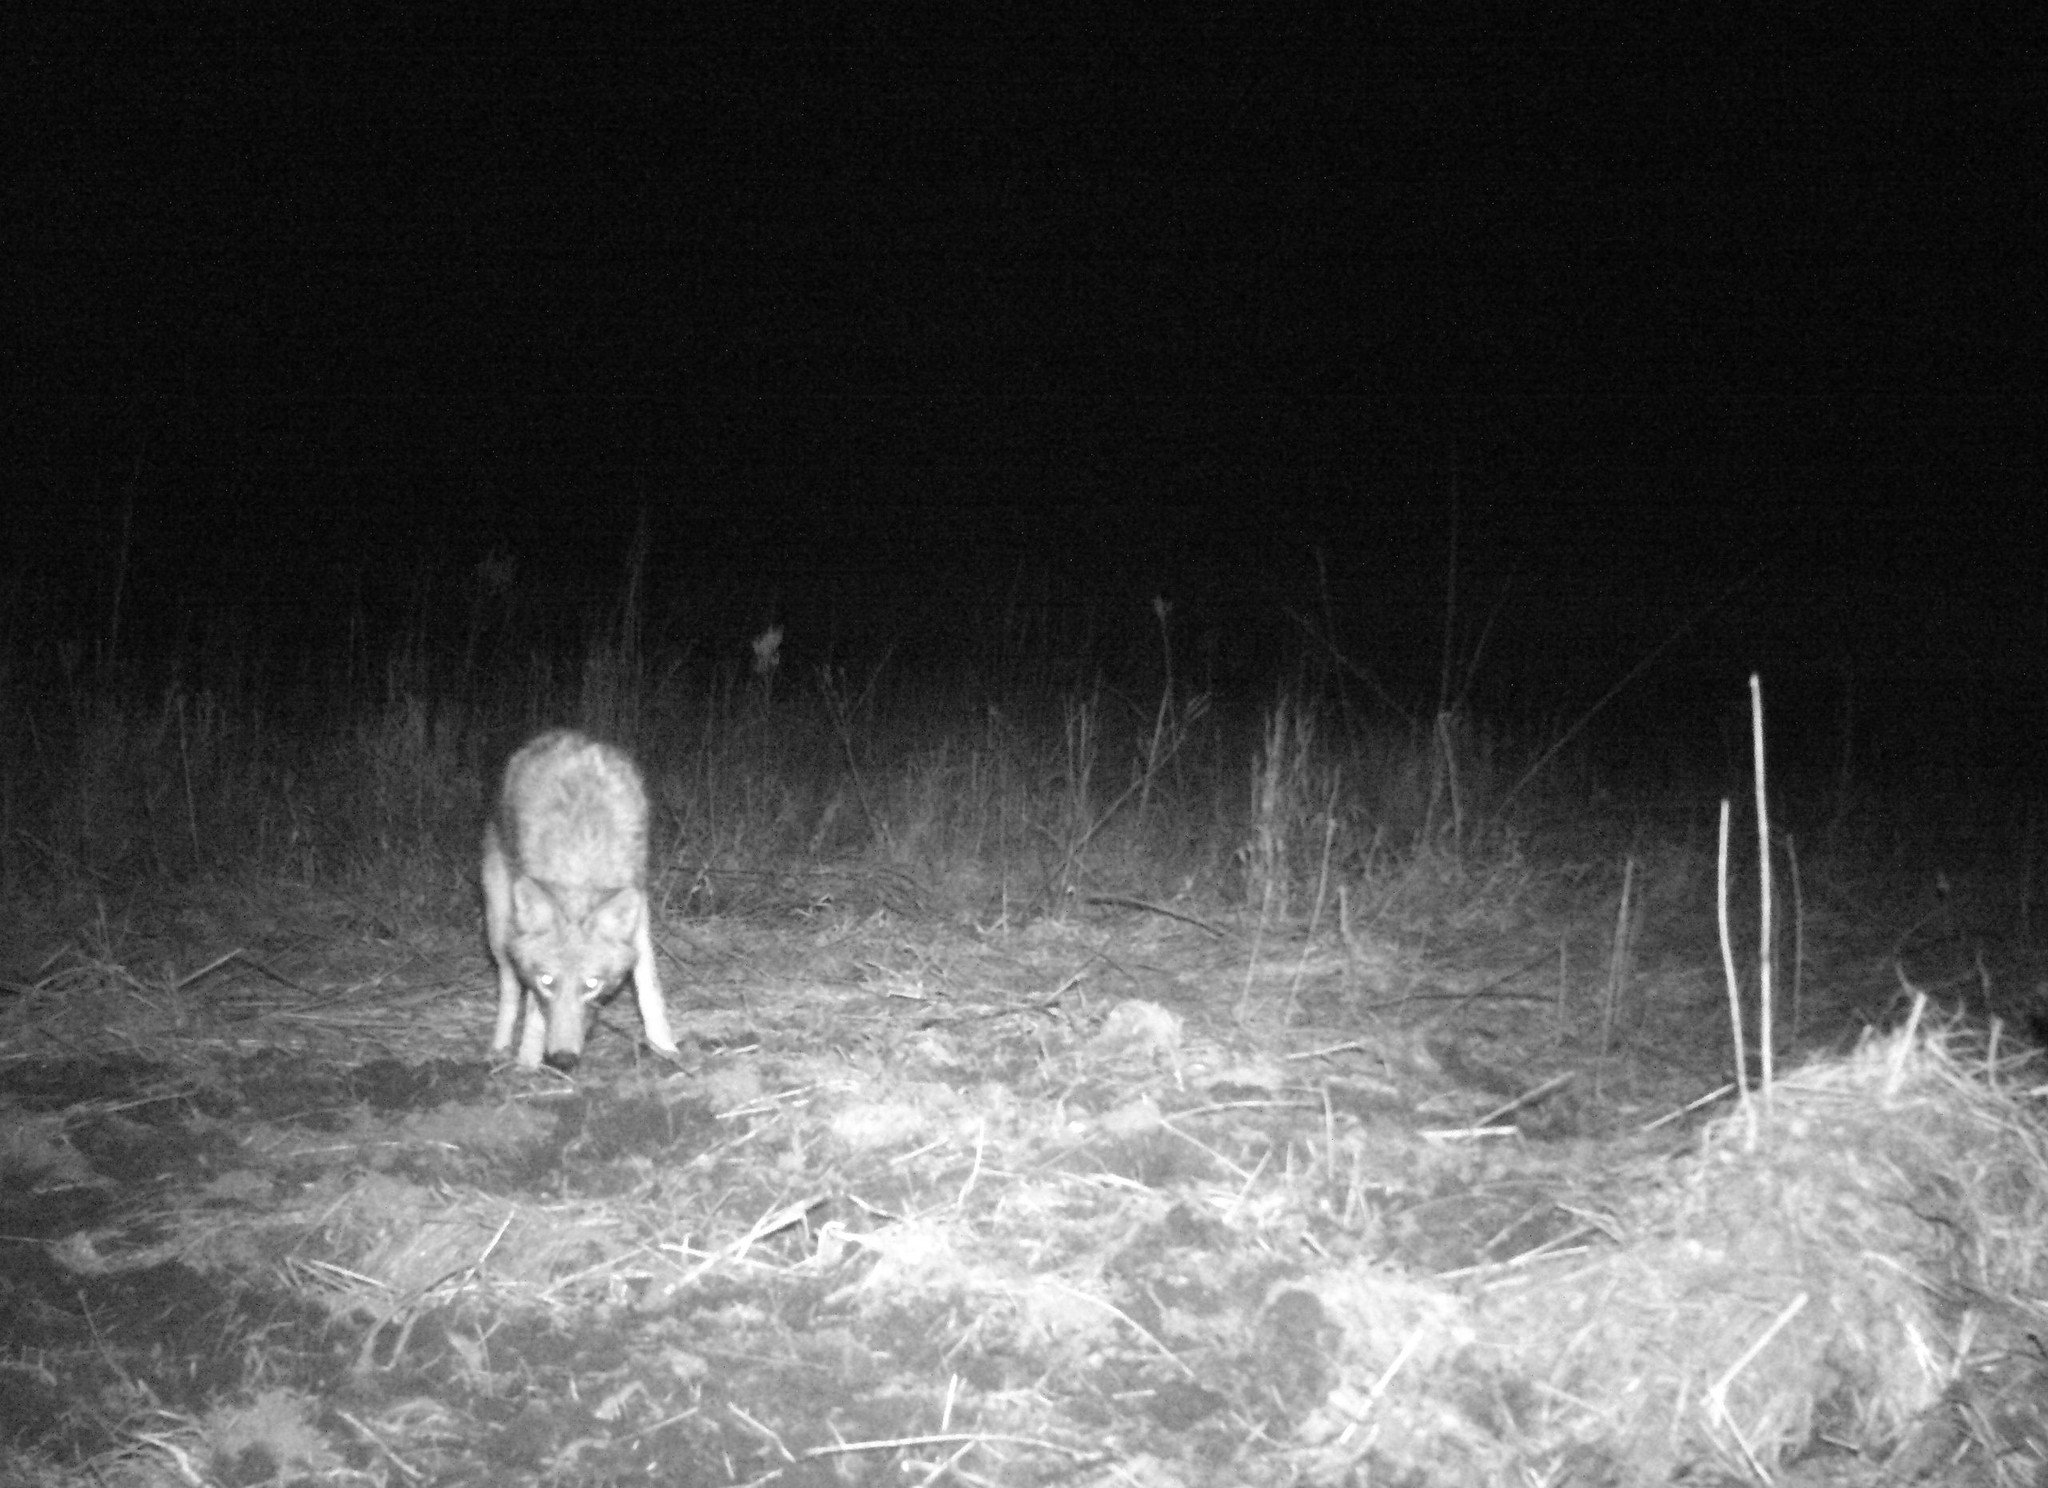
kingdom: Animalia
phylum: Chordata
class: Mammalia
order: Carnivora
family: Canidae
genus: Canis
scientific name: Canis latrans
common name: Coyote
